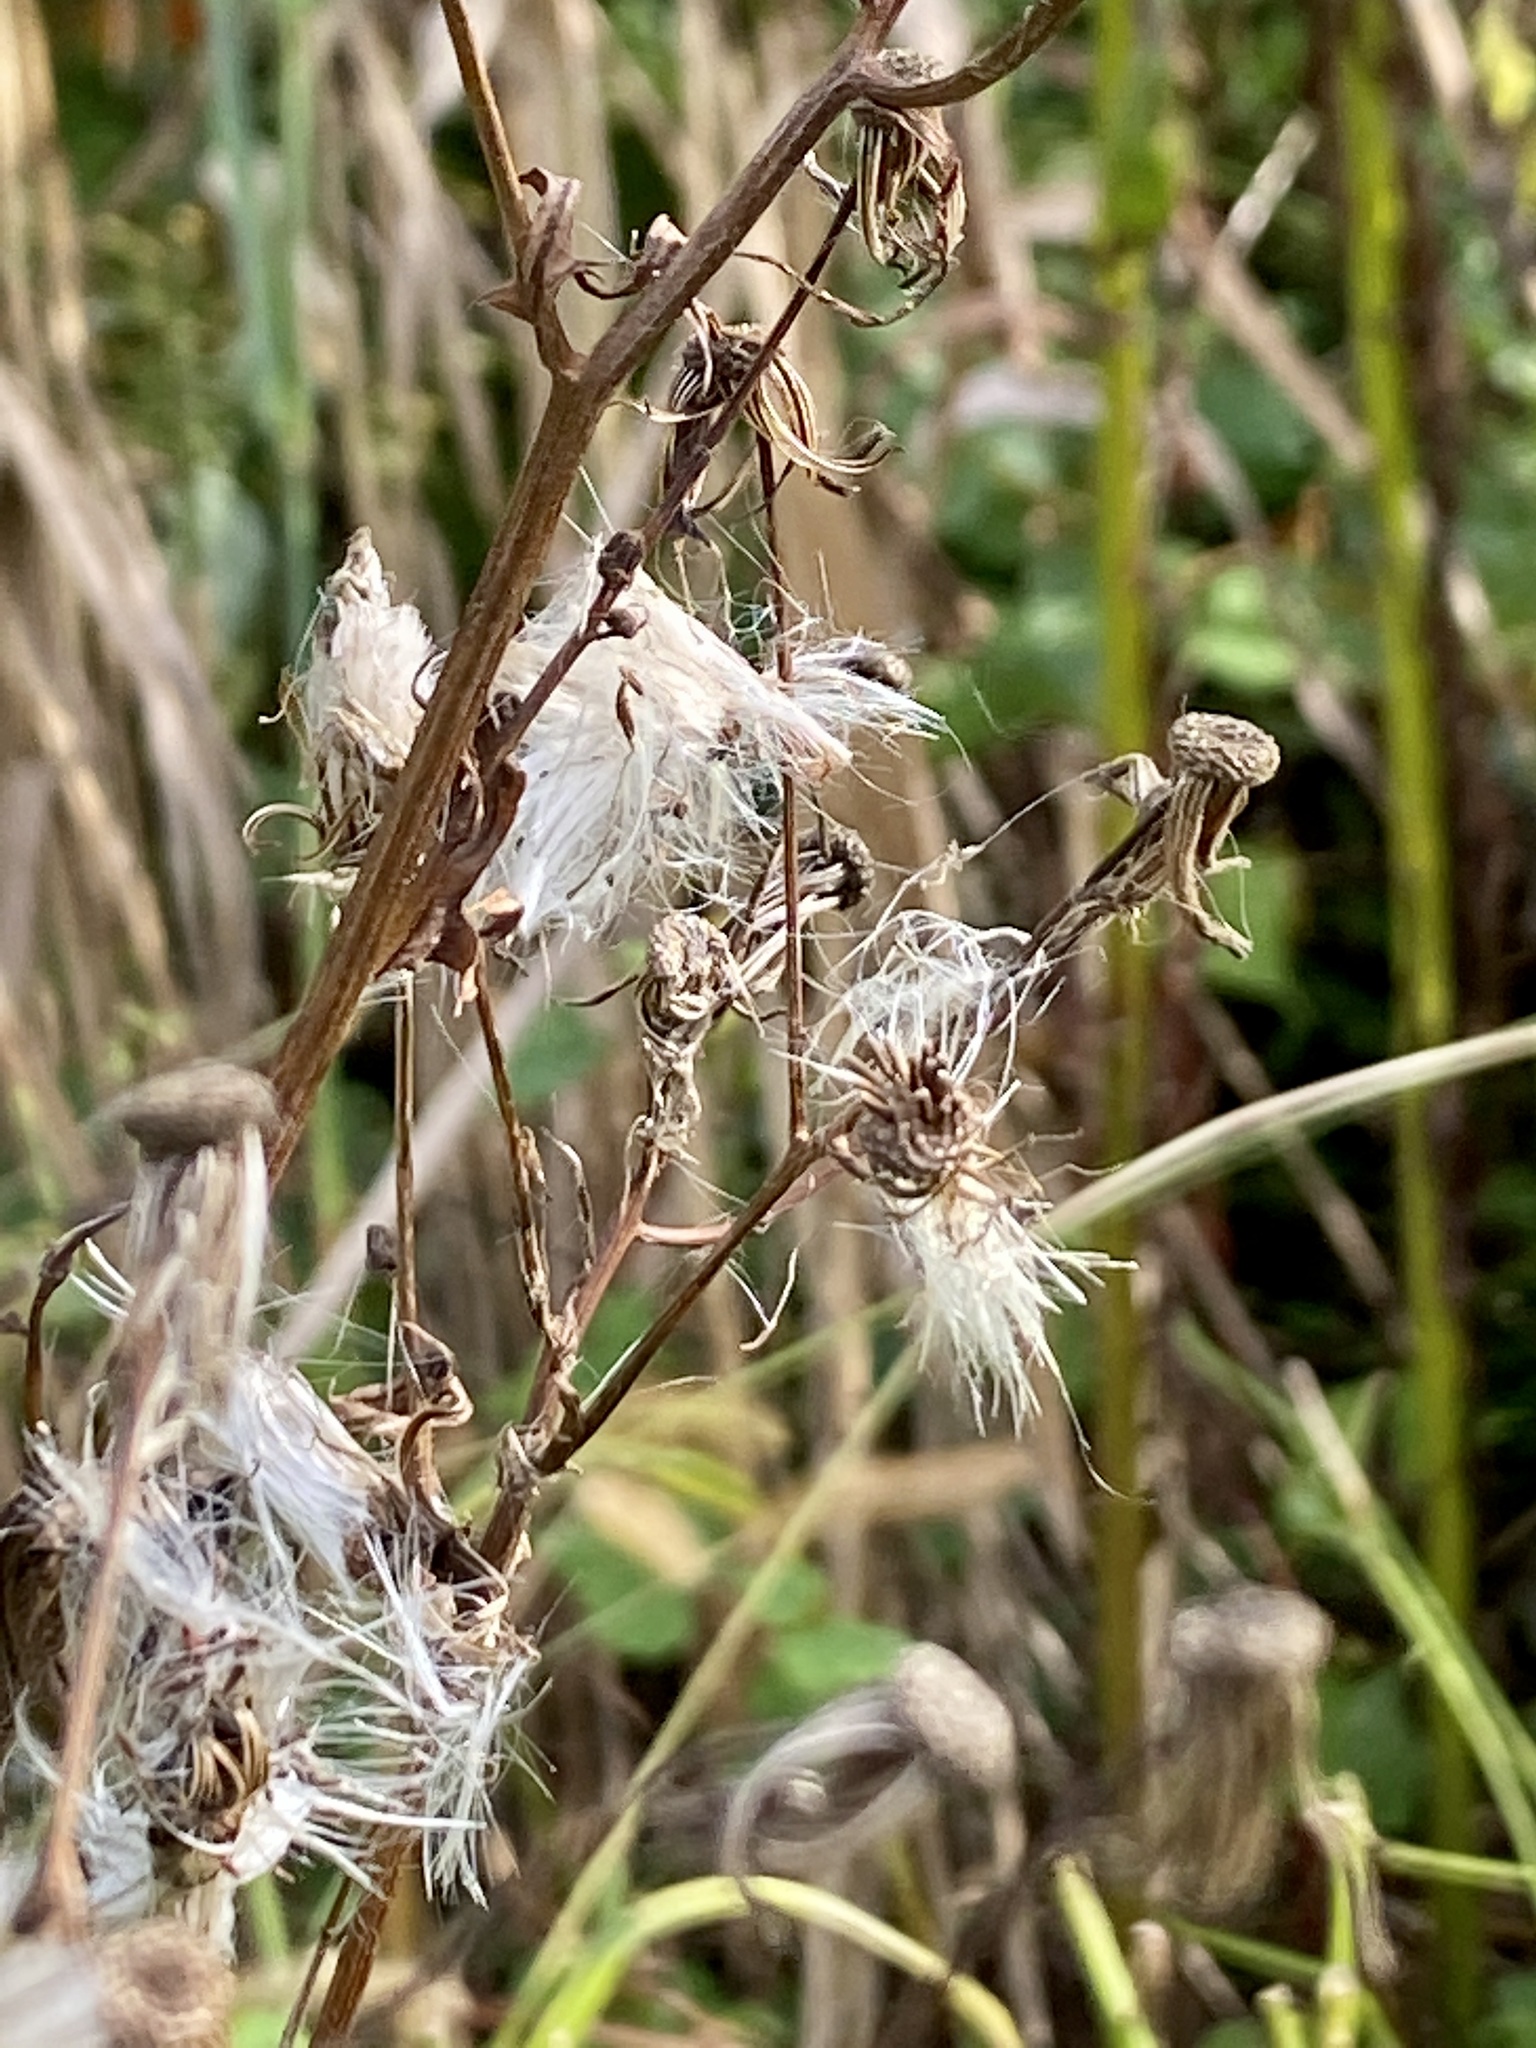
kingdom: Plantae
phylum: Tracheophyta
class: Magnoliopsida
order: Asterales
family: Asteraceae
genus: Erechtites
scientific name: Erechtites hieraciifolius
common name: American burnweed
